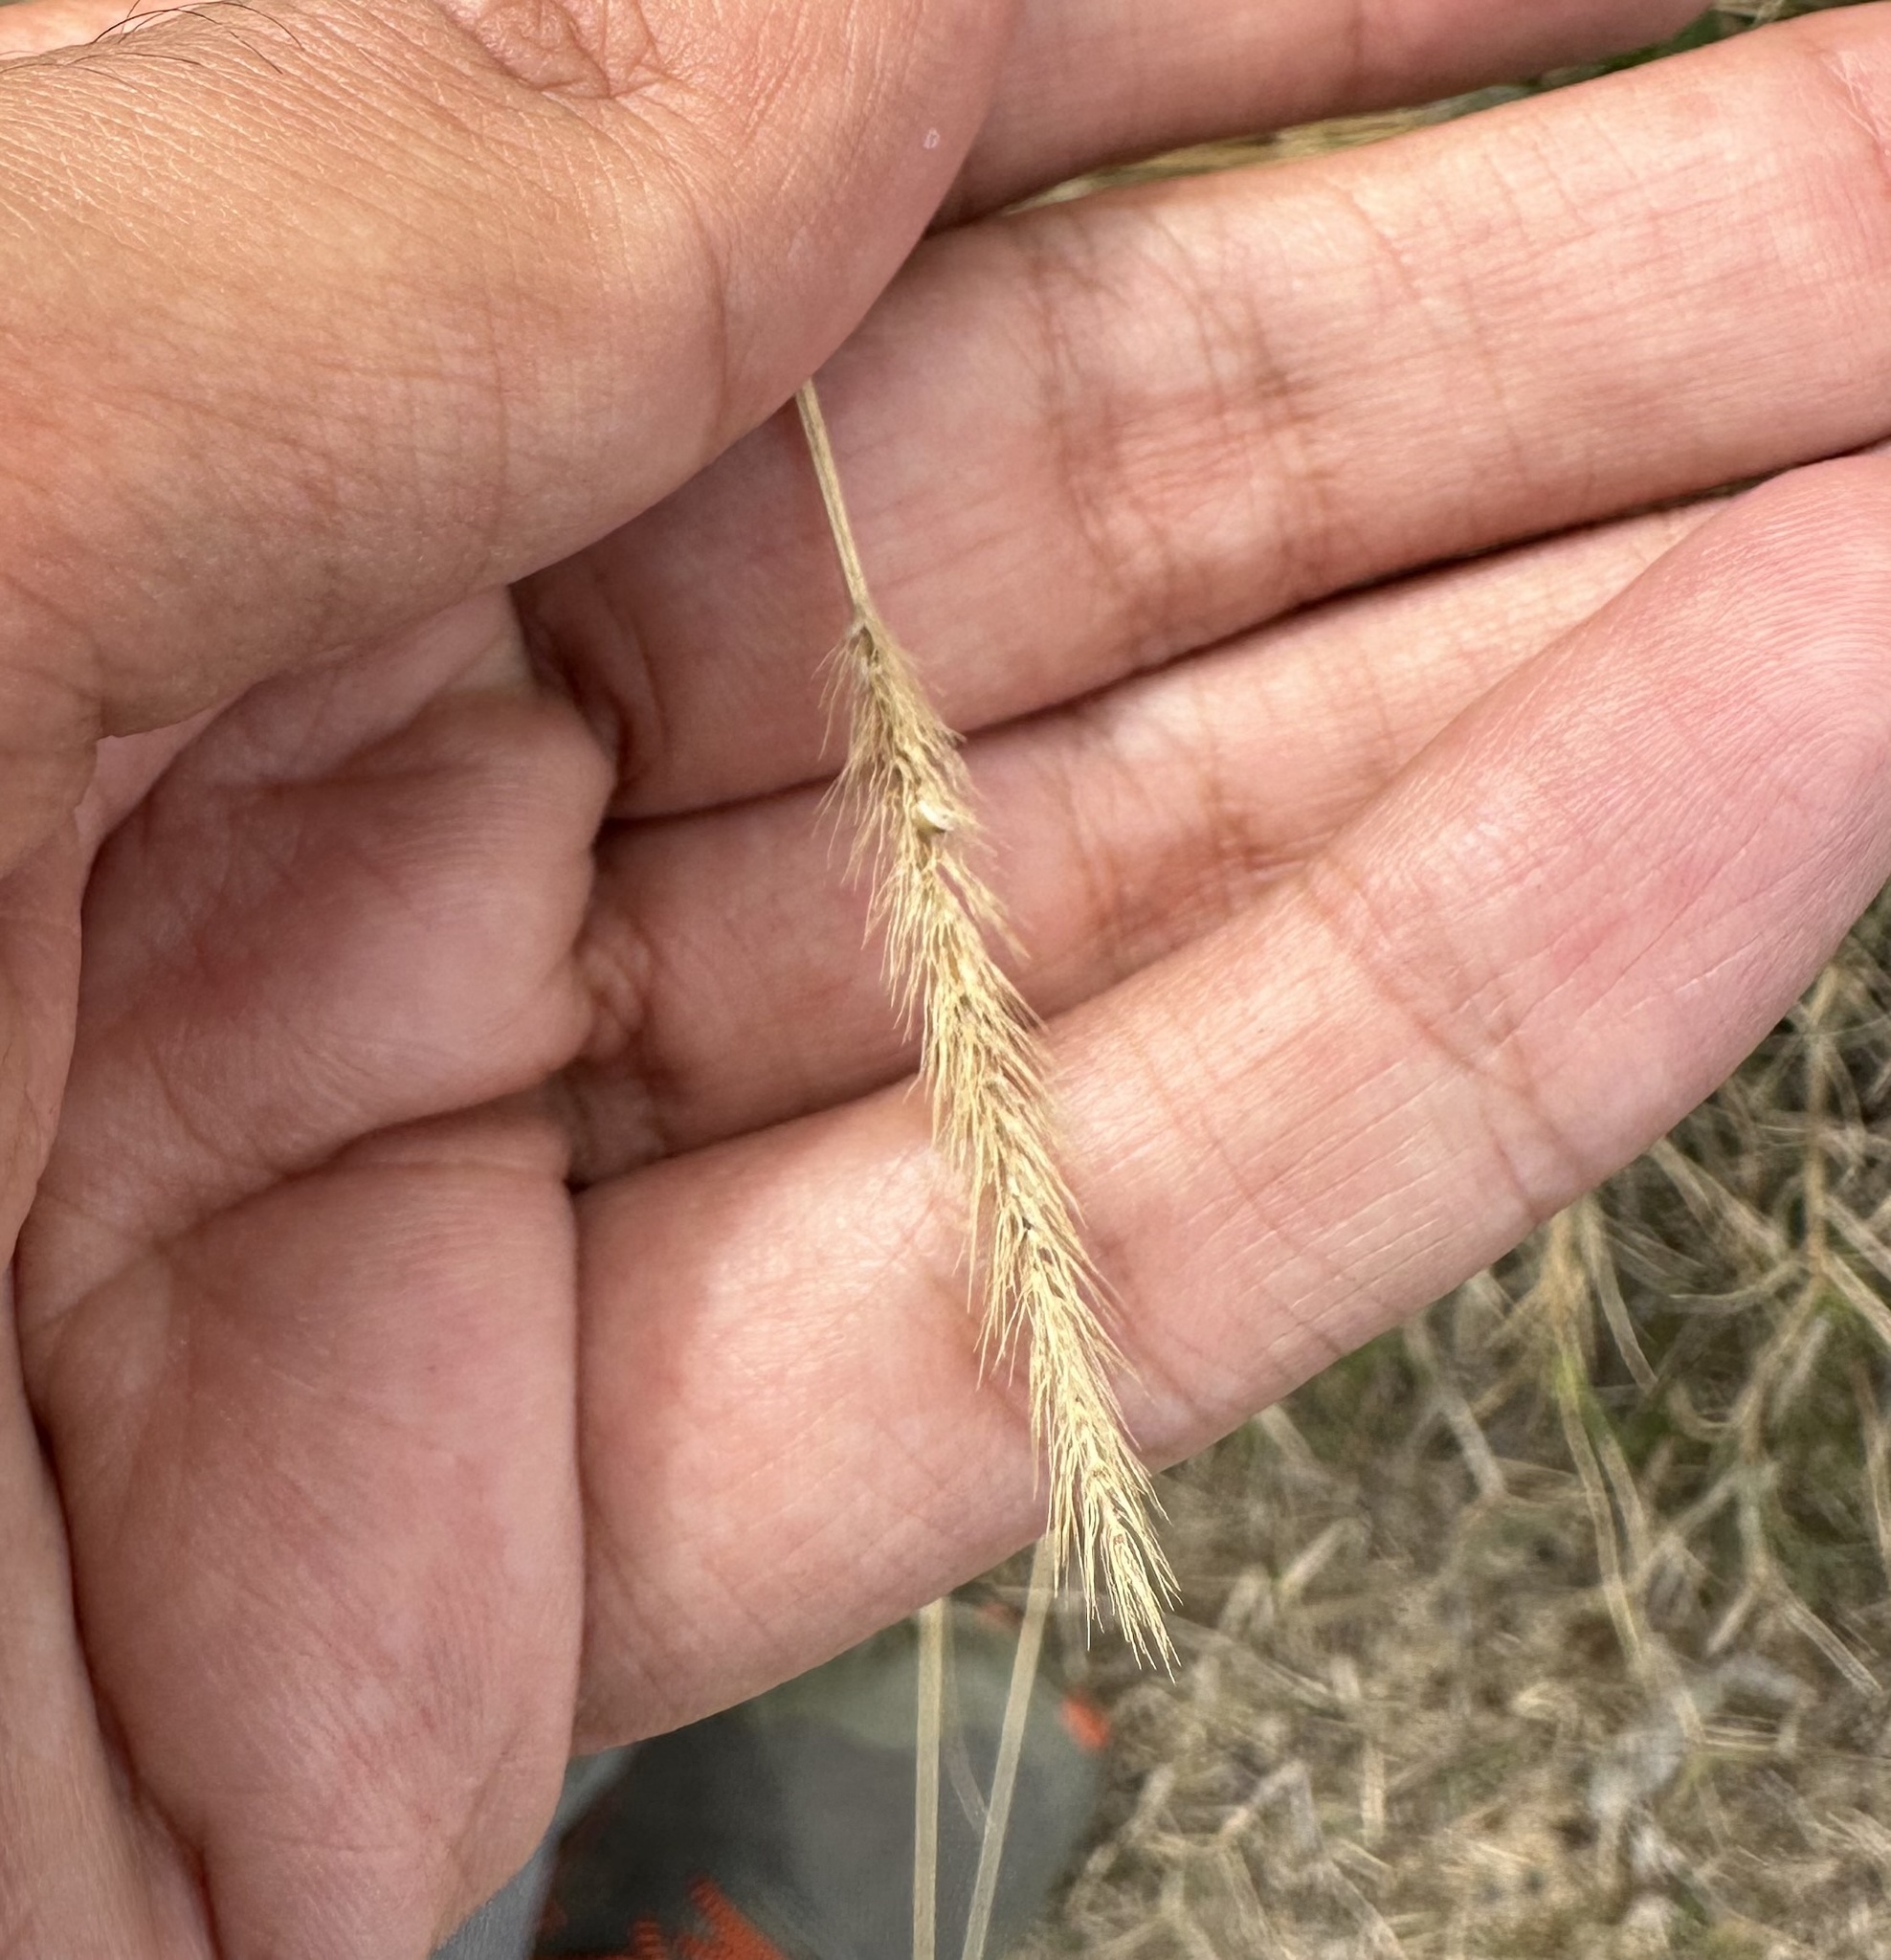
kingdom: Plantae
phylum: Tracheophyta
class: Liliopsida
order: Poales
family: Poaceae
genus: Setaria
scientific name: Setaria
